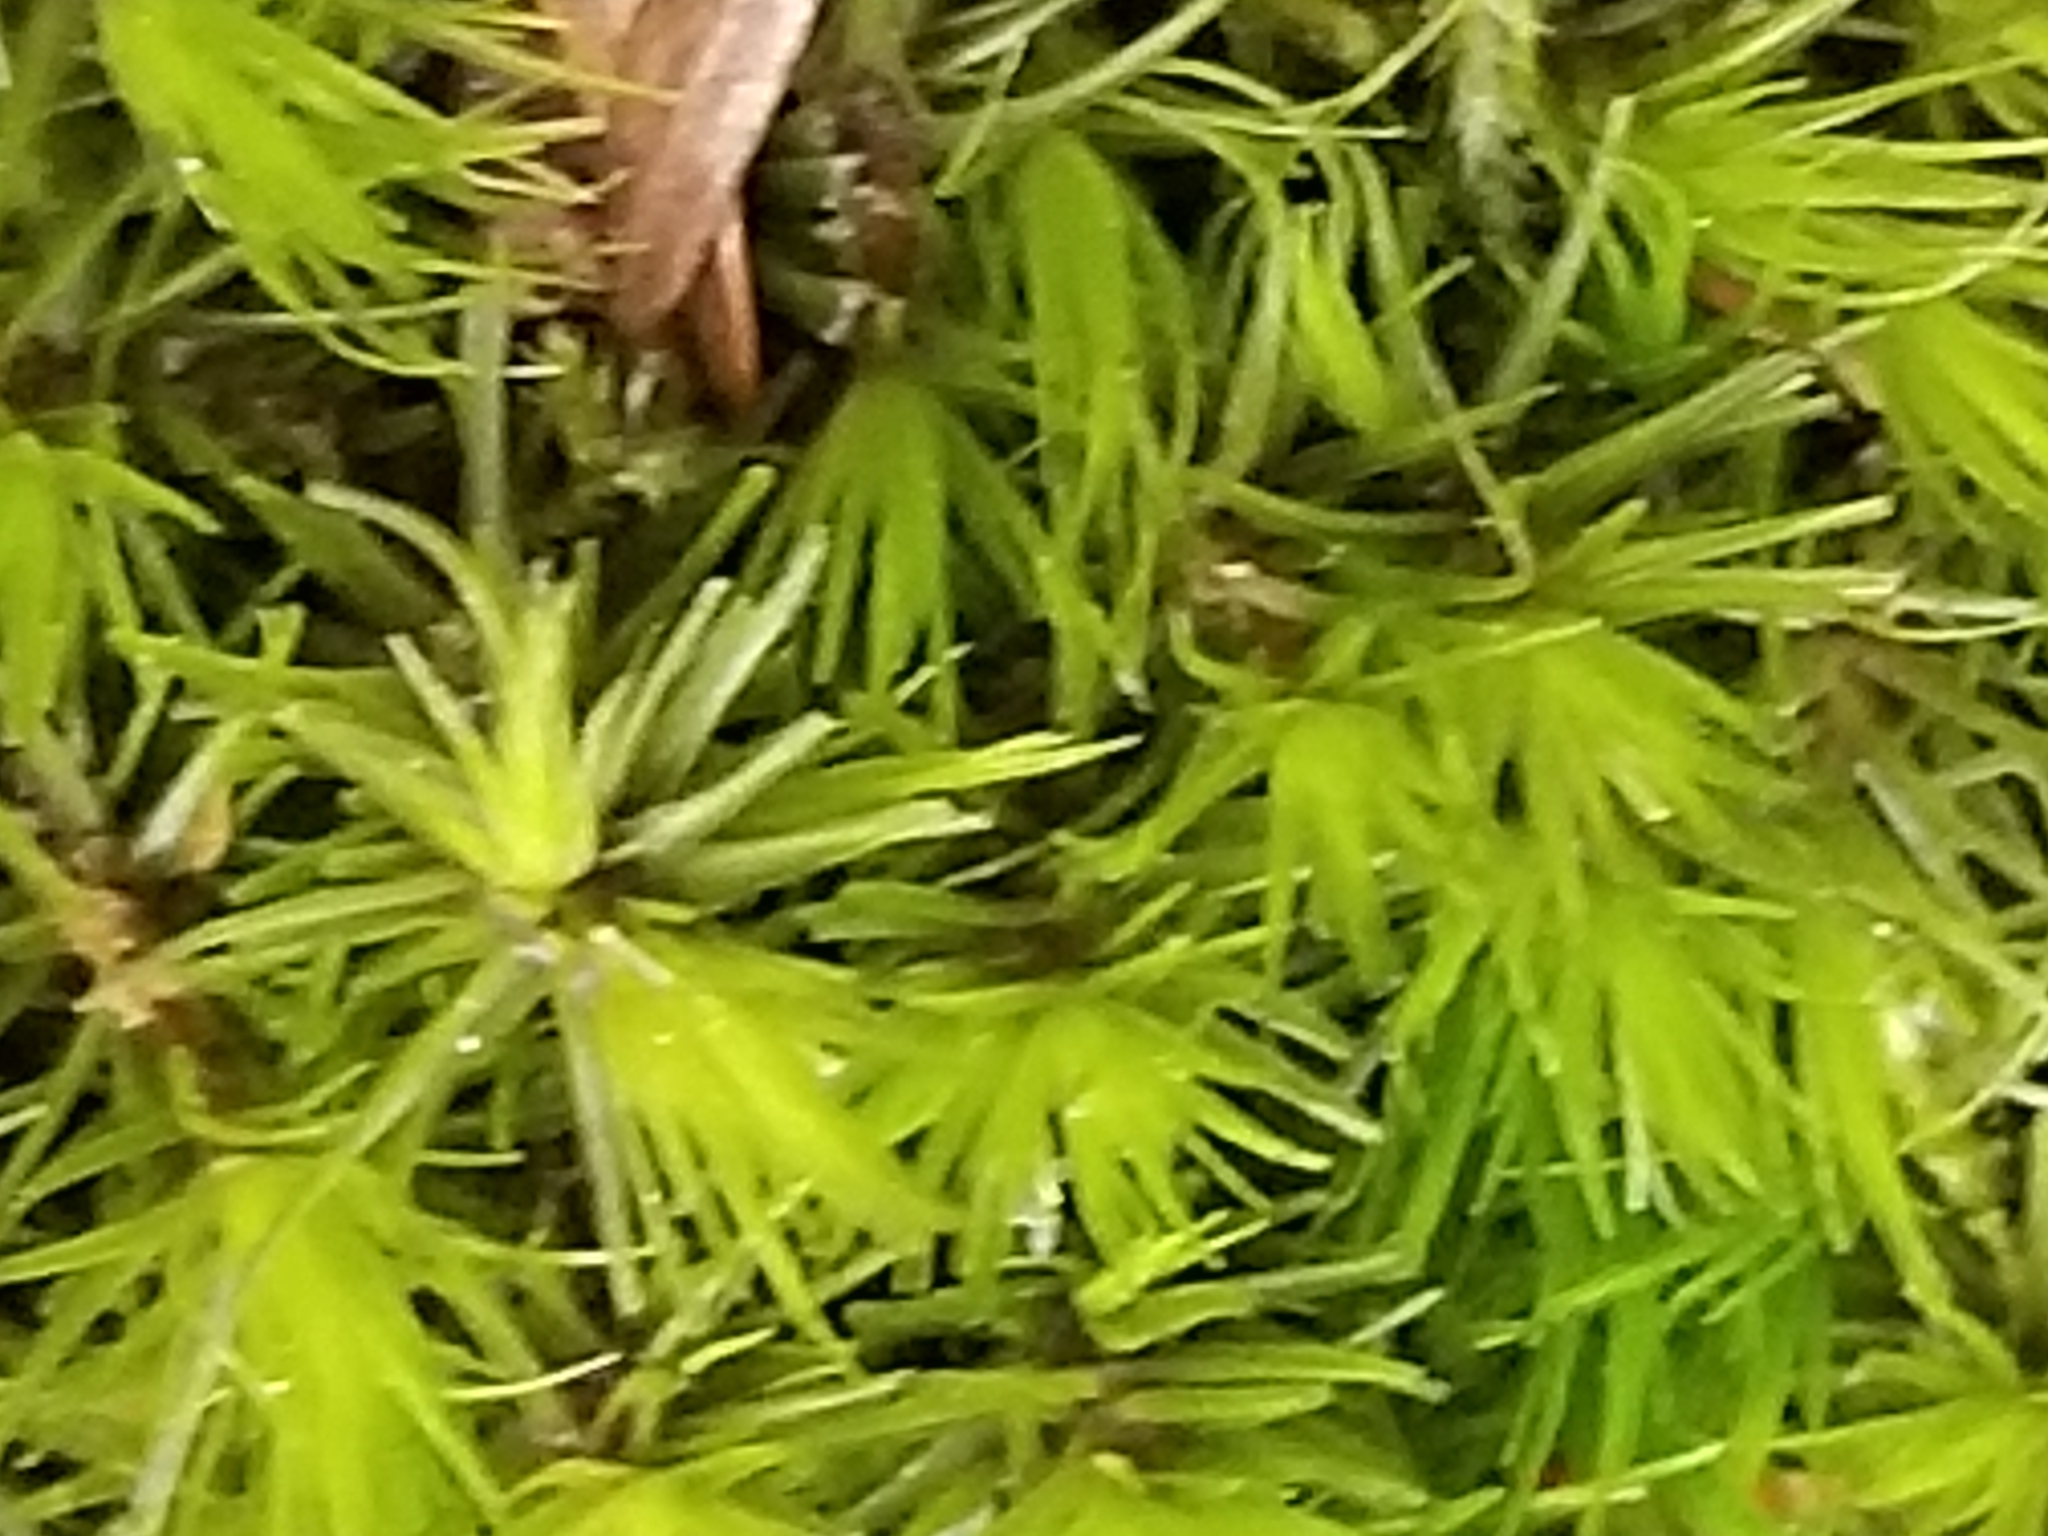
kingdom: Plantae
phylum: Bryophyta
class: Bryopsida
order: Dicranales
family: Dicranaceae
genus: Dicranum
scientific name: Dicranum viride
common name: Green broom moss
